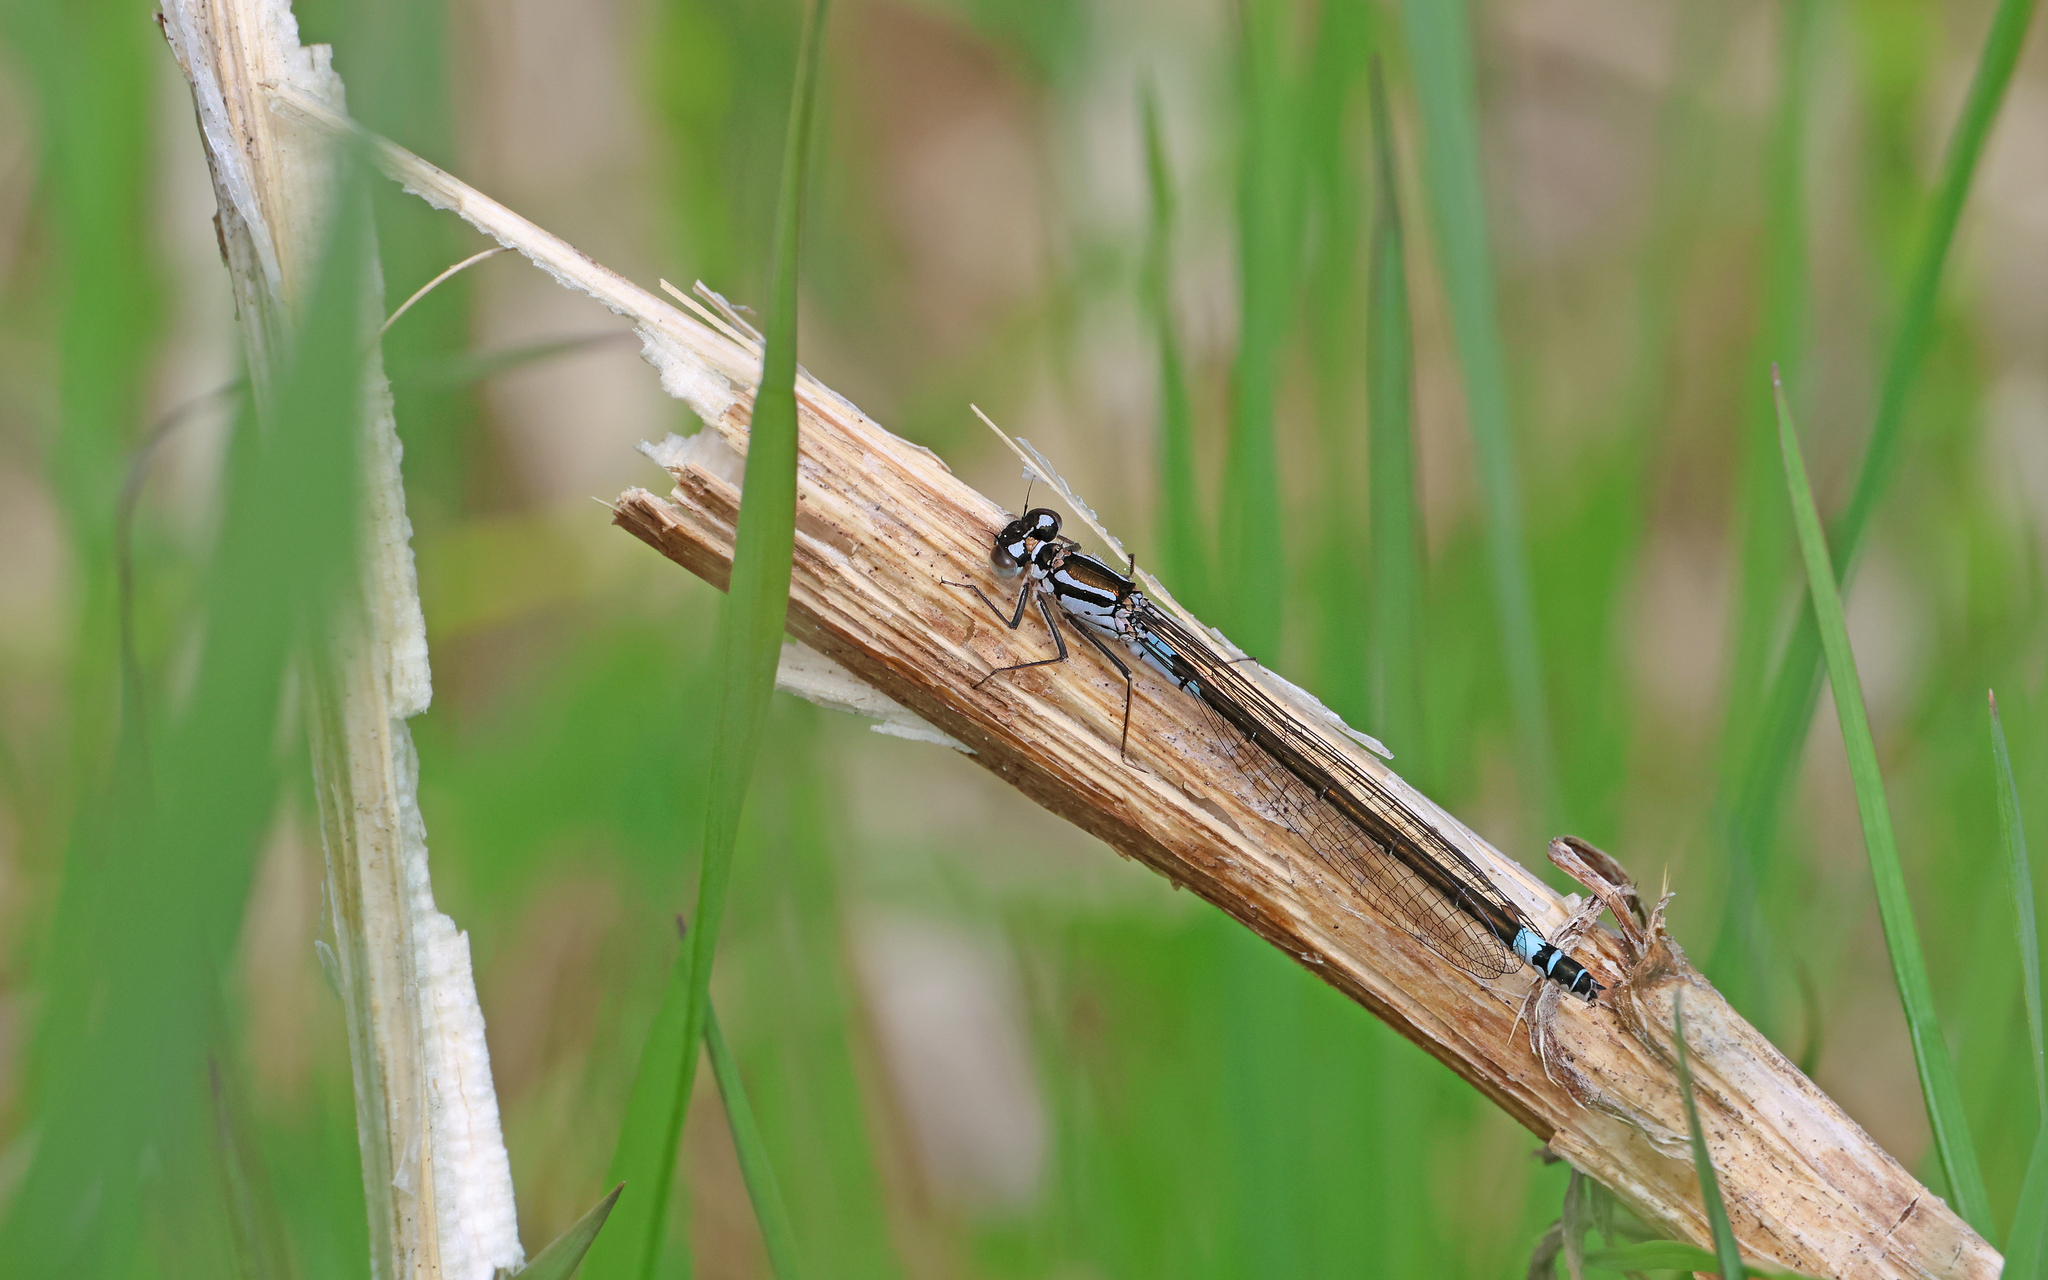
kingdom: Animalia
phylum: Arthropoda
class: Insecta
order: Odonata
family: Coenagrionidae
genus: Coenagrion
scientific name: Coenagrion armatum
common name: Dark bluet
